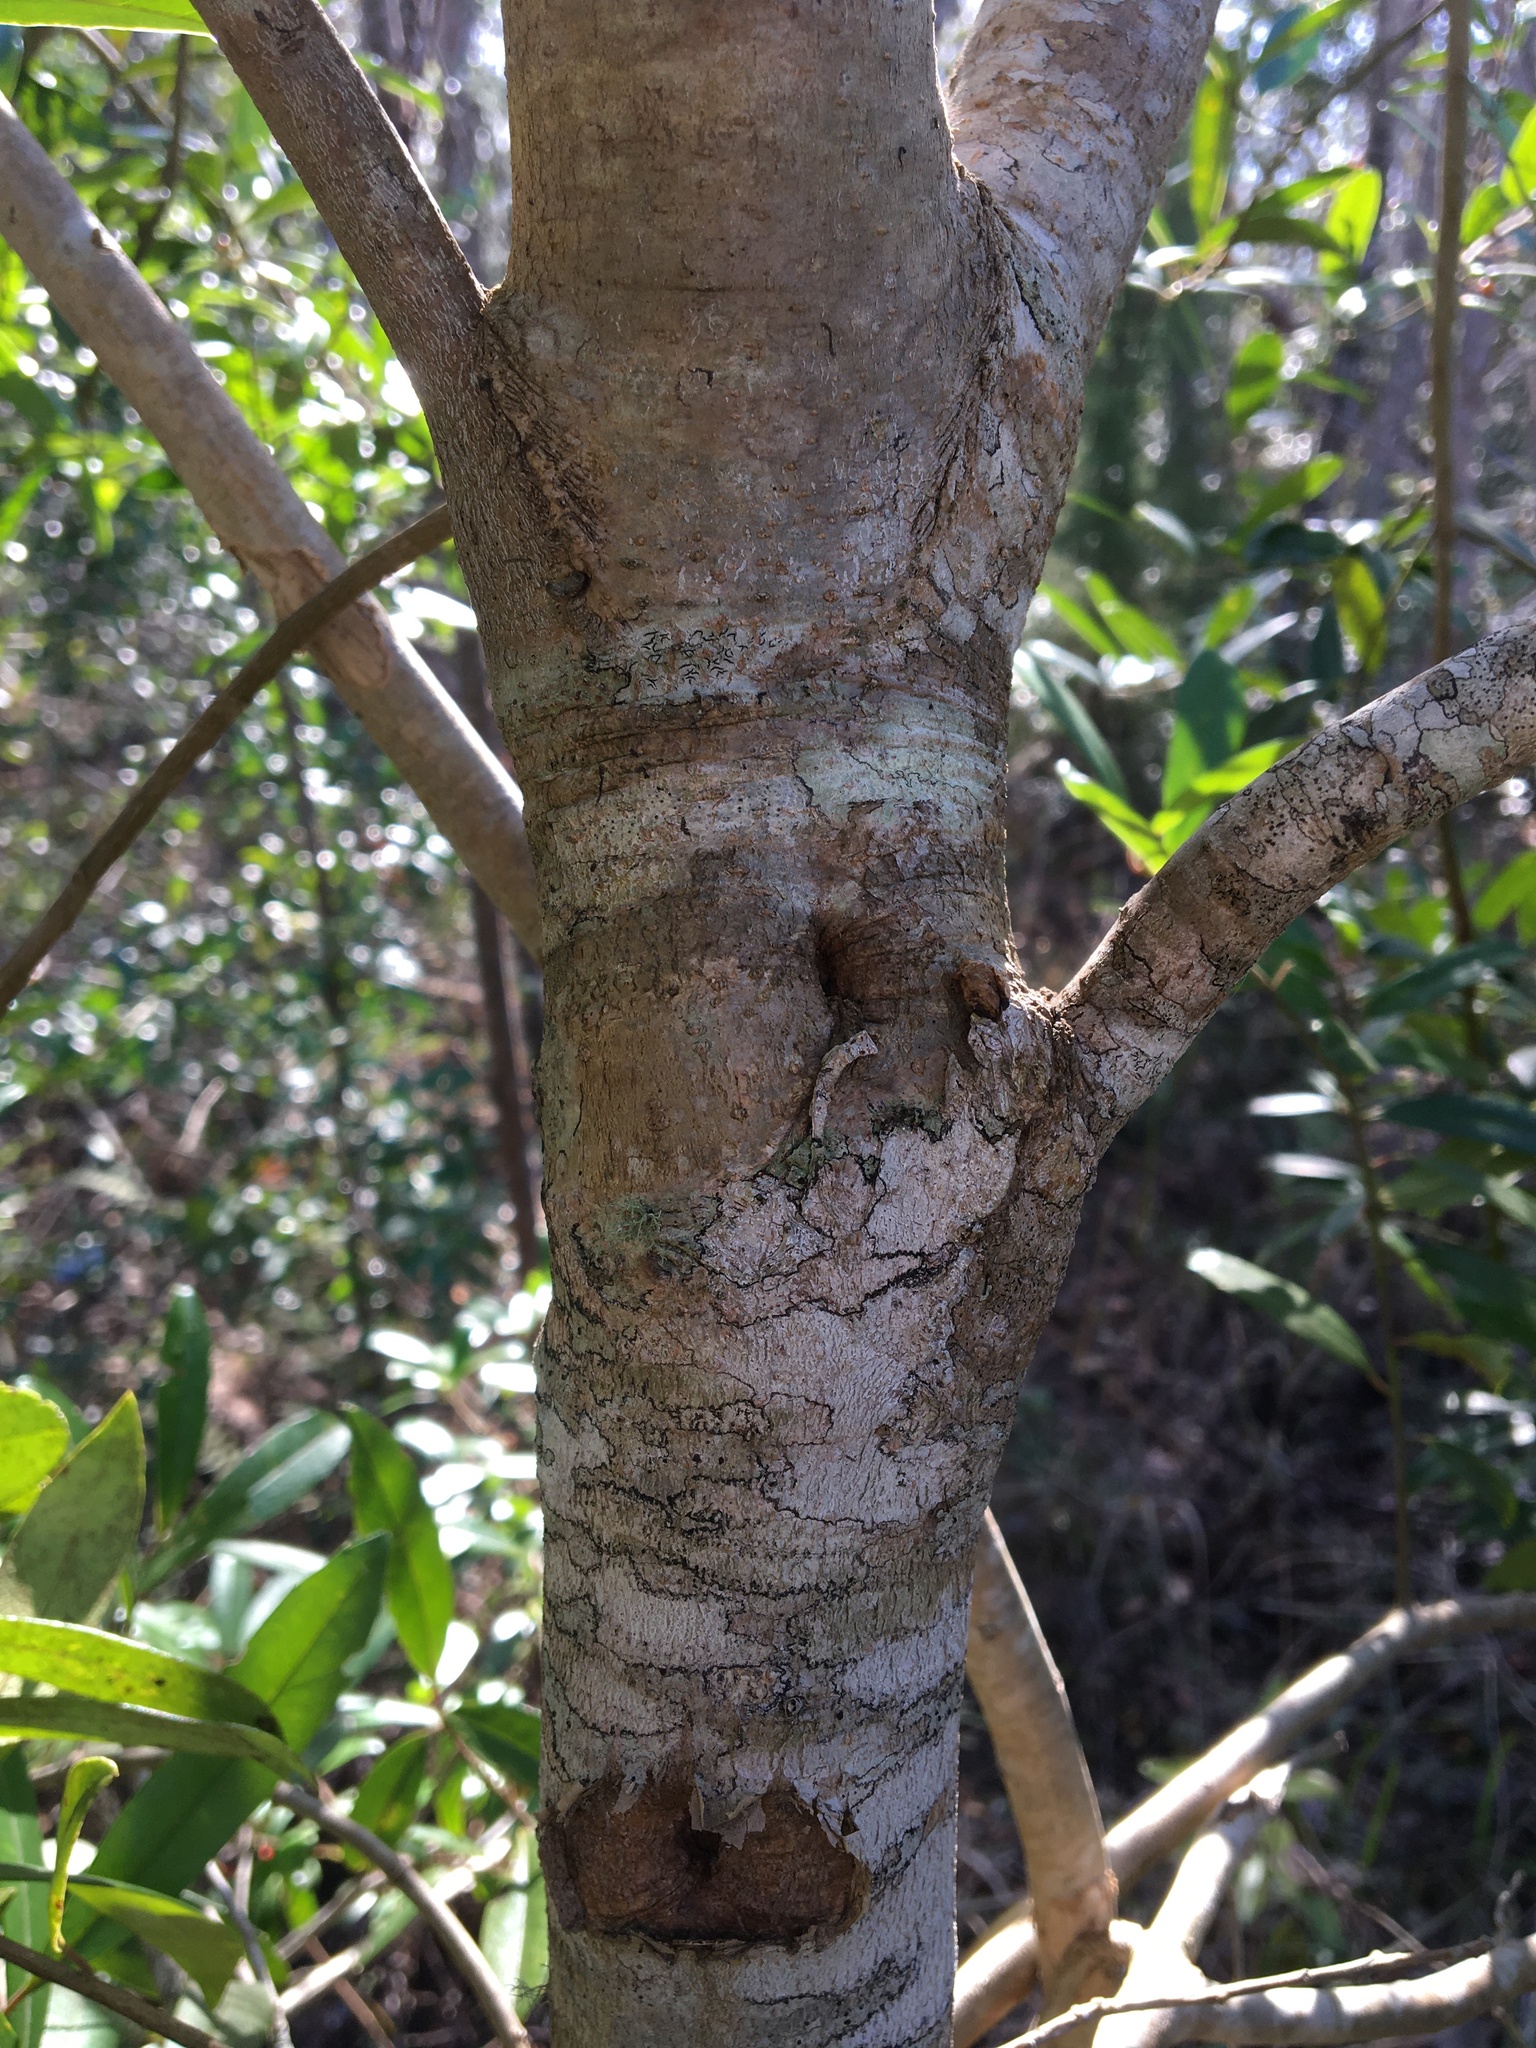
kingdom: Plantae
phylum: Tracheophyta
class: Magnoliopsida
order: Aquifoliales
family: Aquifoliaceae
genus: Ilex
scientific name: Ilex cassine
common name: Dahoon
